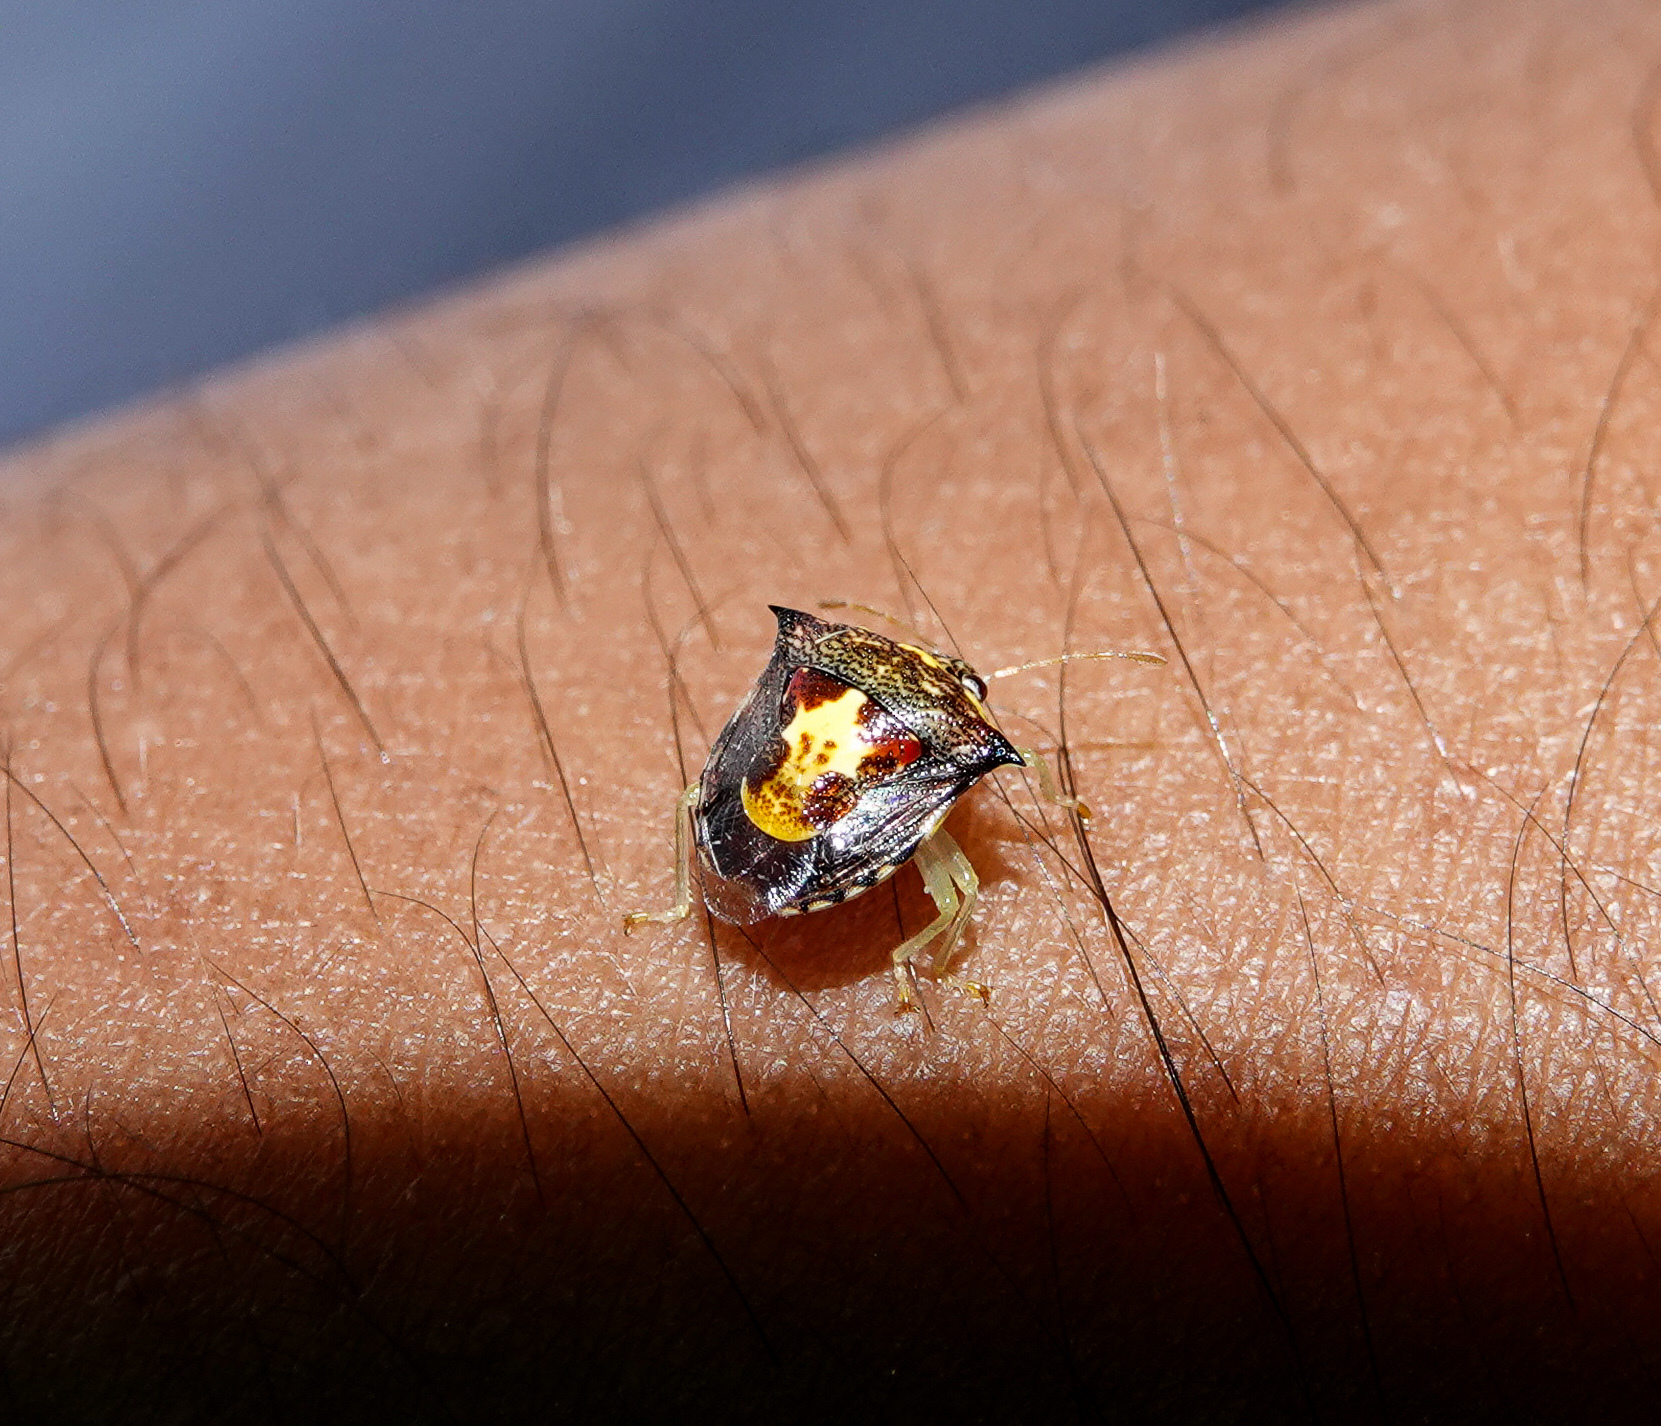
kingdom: Animalia
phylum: Arthropoda
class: Insecta
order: Hemiptera
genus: Stachyomia
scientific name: Stachyomia
